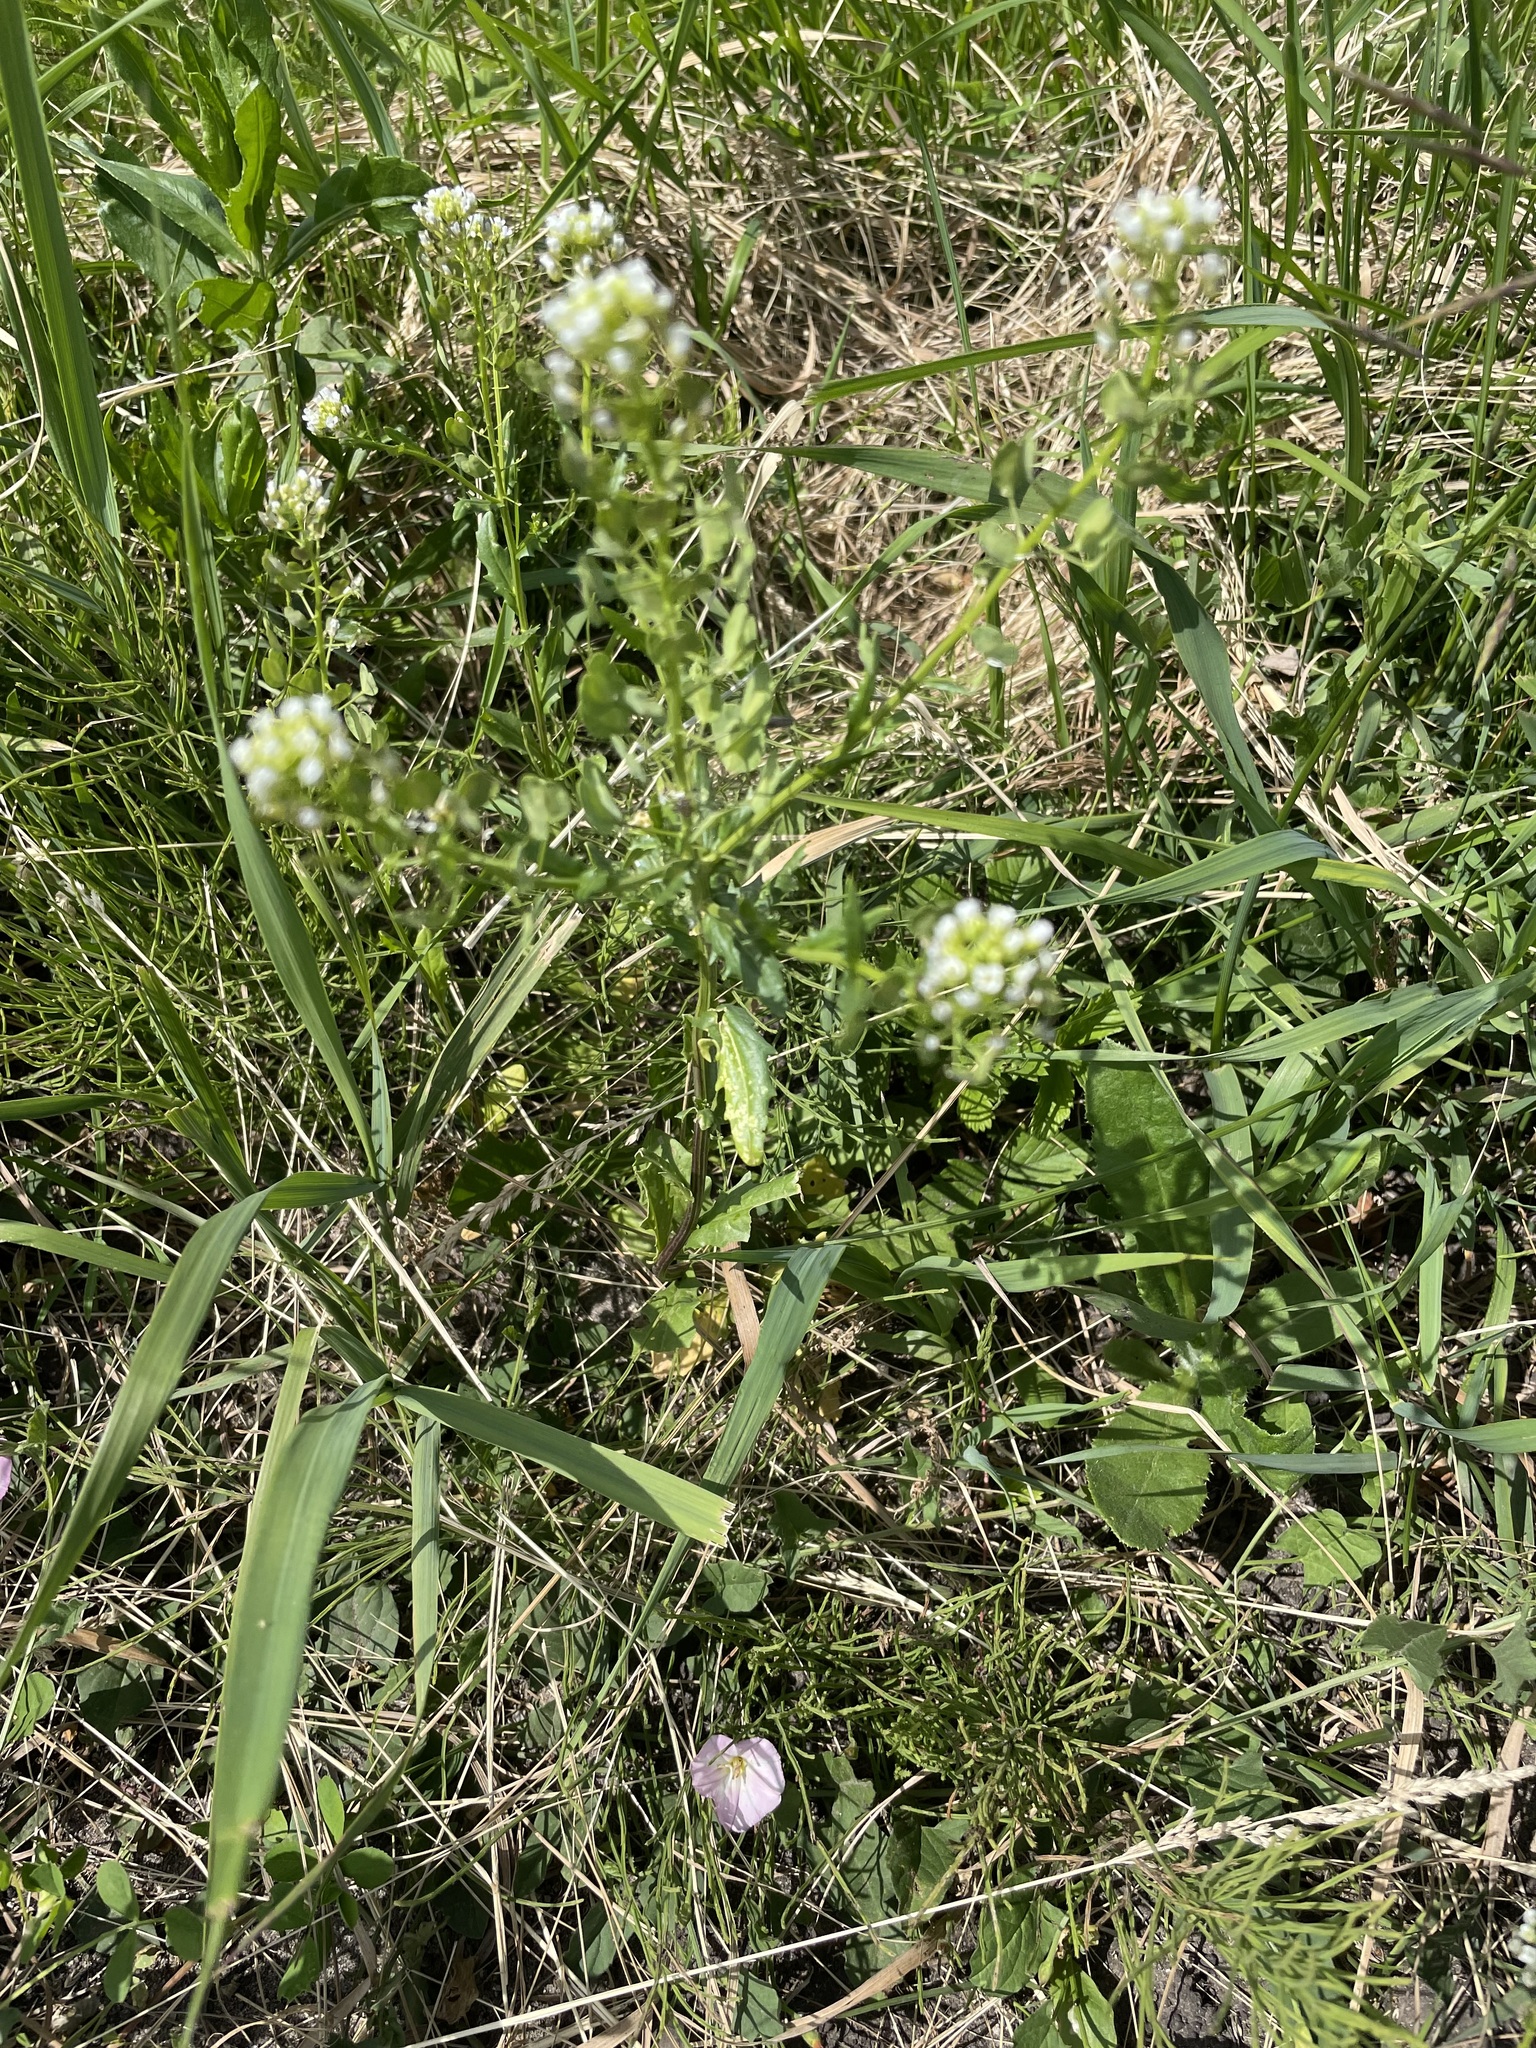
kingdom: Plantae
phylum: Tracheophyta
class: Magnoliopsida
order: Brassicales
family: Brassicaceae
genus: Thlaspi
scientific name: Thlaspi arvense
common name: Field pennycress
